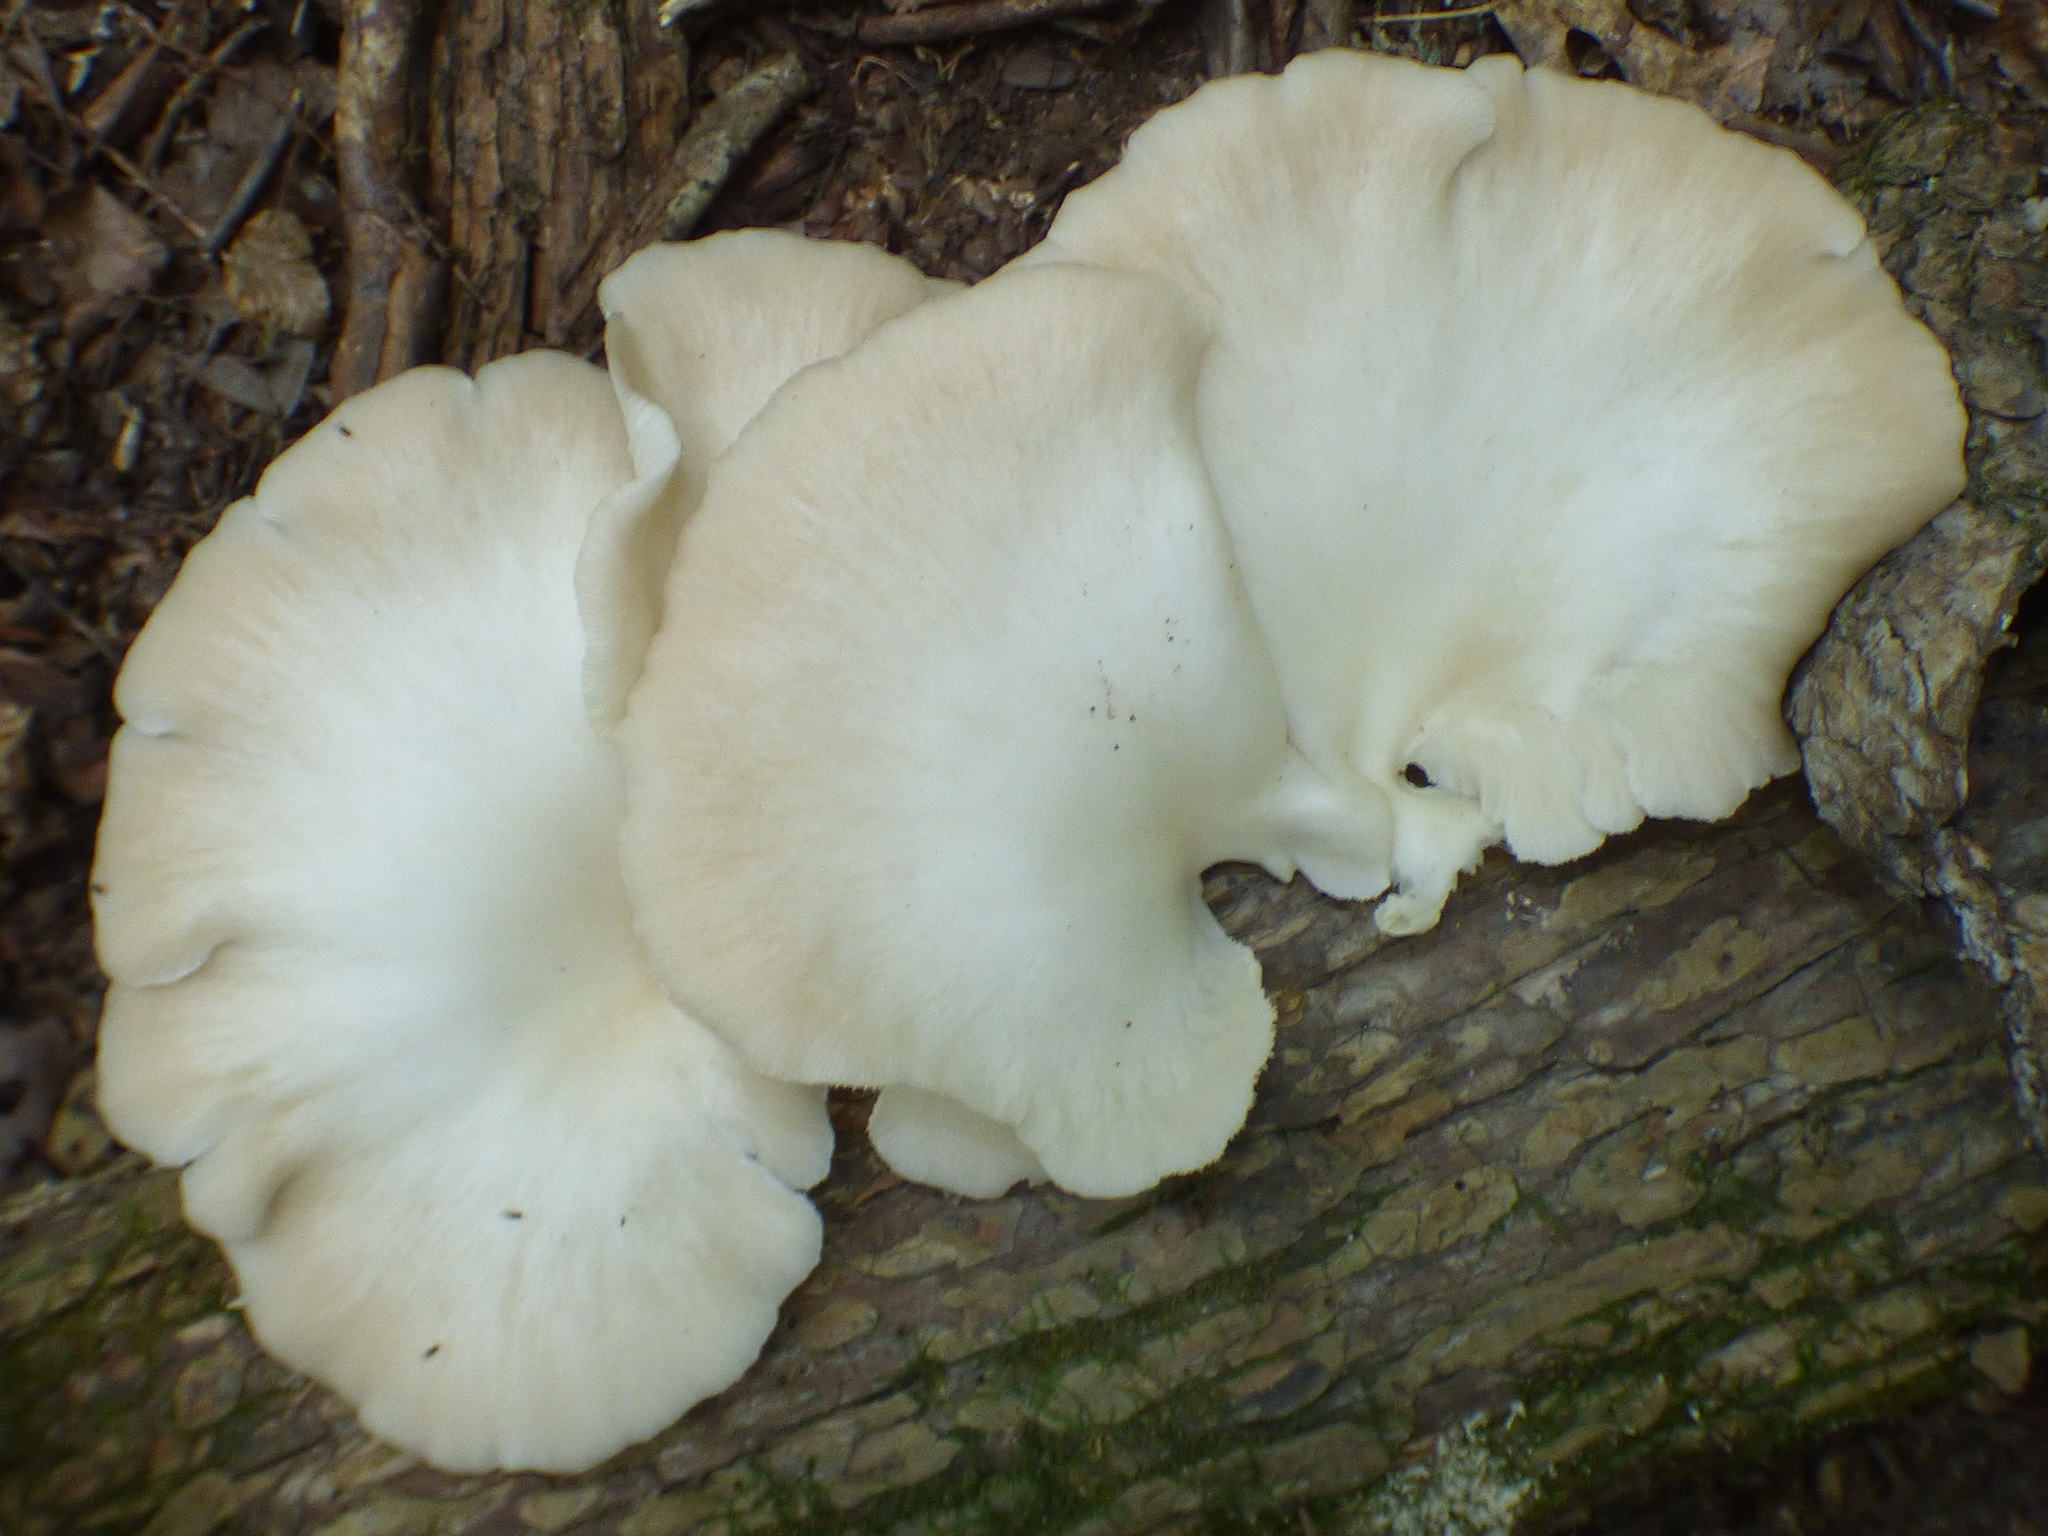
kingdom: Fungi
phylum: Basidiomycota
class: Agaricomycetes
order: Agaricales
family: Pleurotaceae
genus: Pleurotus
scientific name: Pleurotus pulmonarius
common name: Pale oyster
